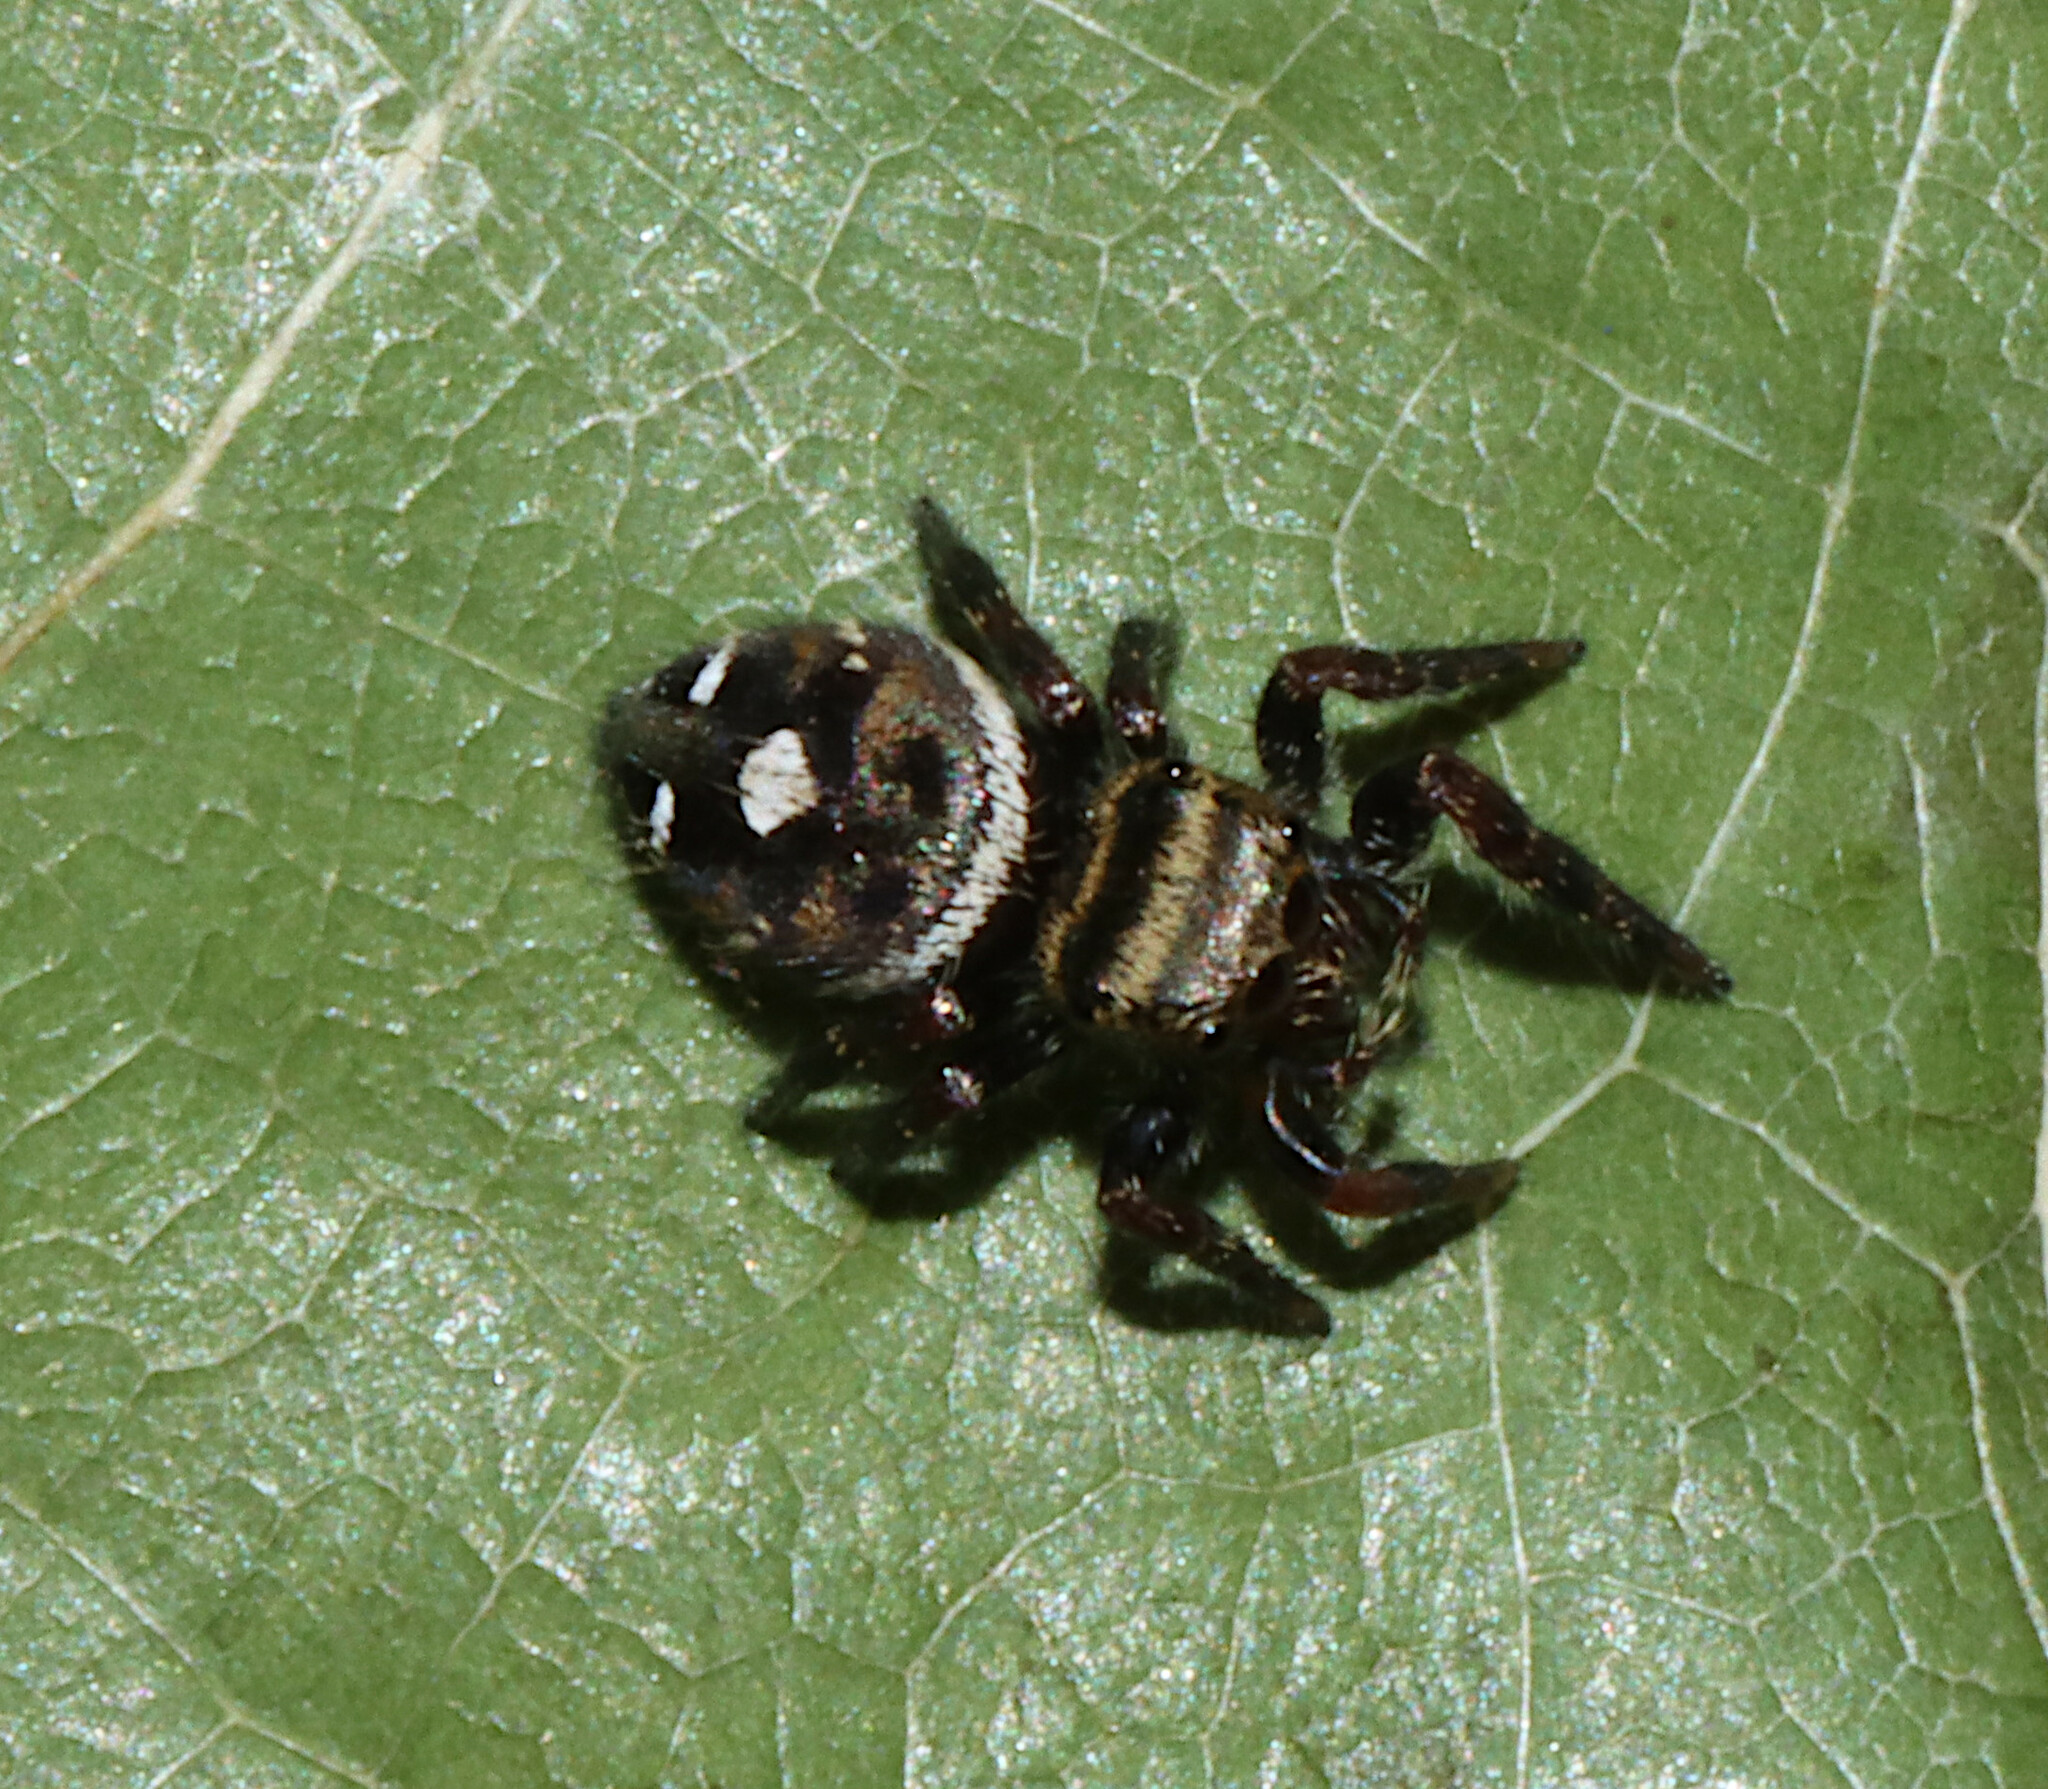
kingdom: Animalia
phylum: Arthropoda
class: Arachnida
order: Araneae
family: Salticidae
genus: Phidippus
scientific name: Phidippus audax
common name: Bold jumper
